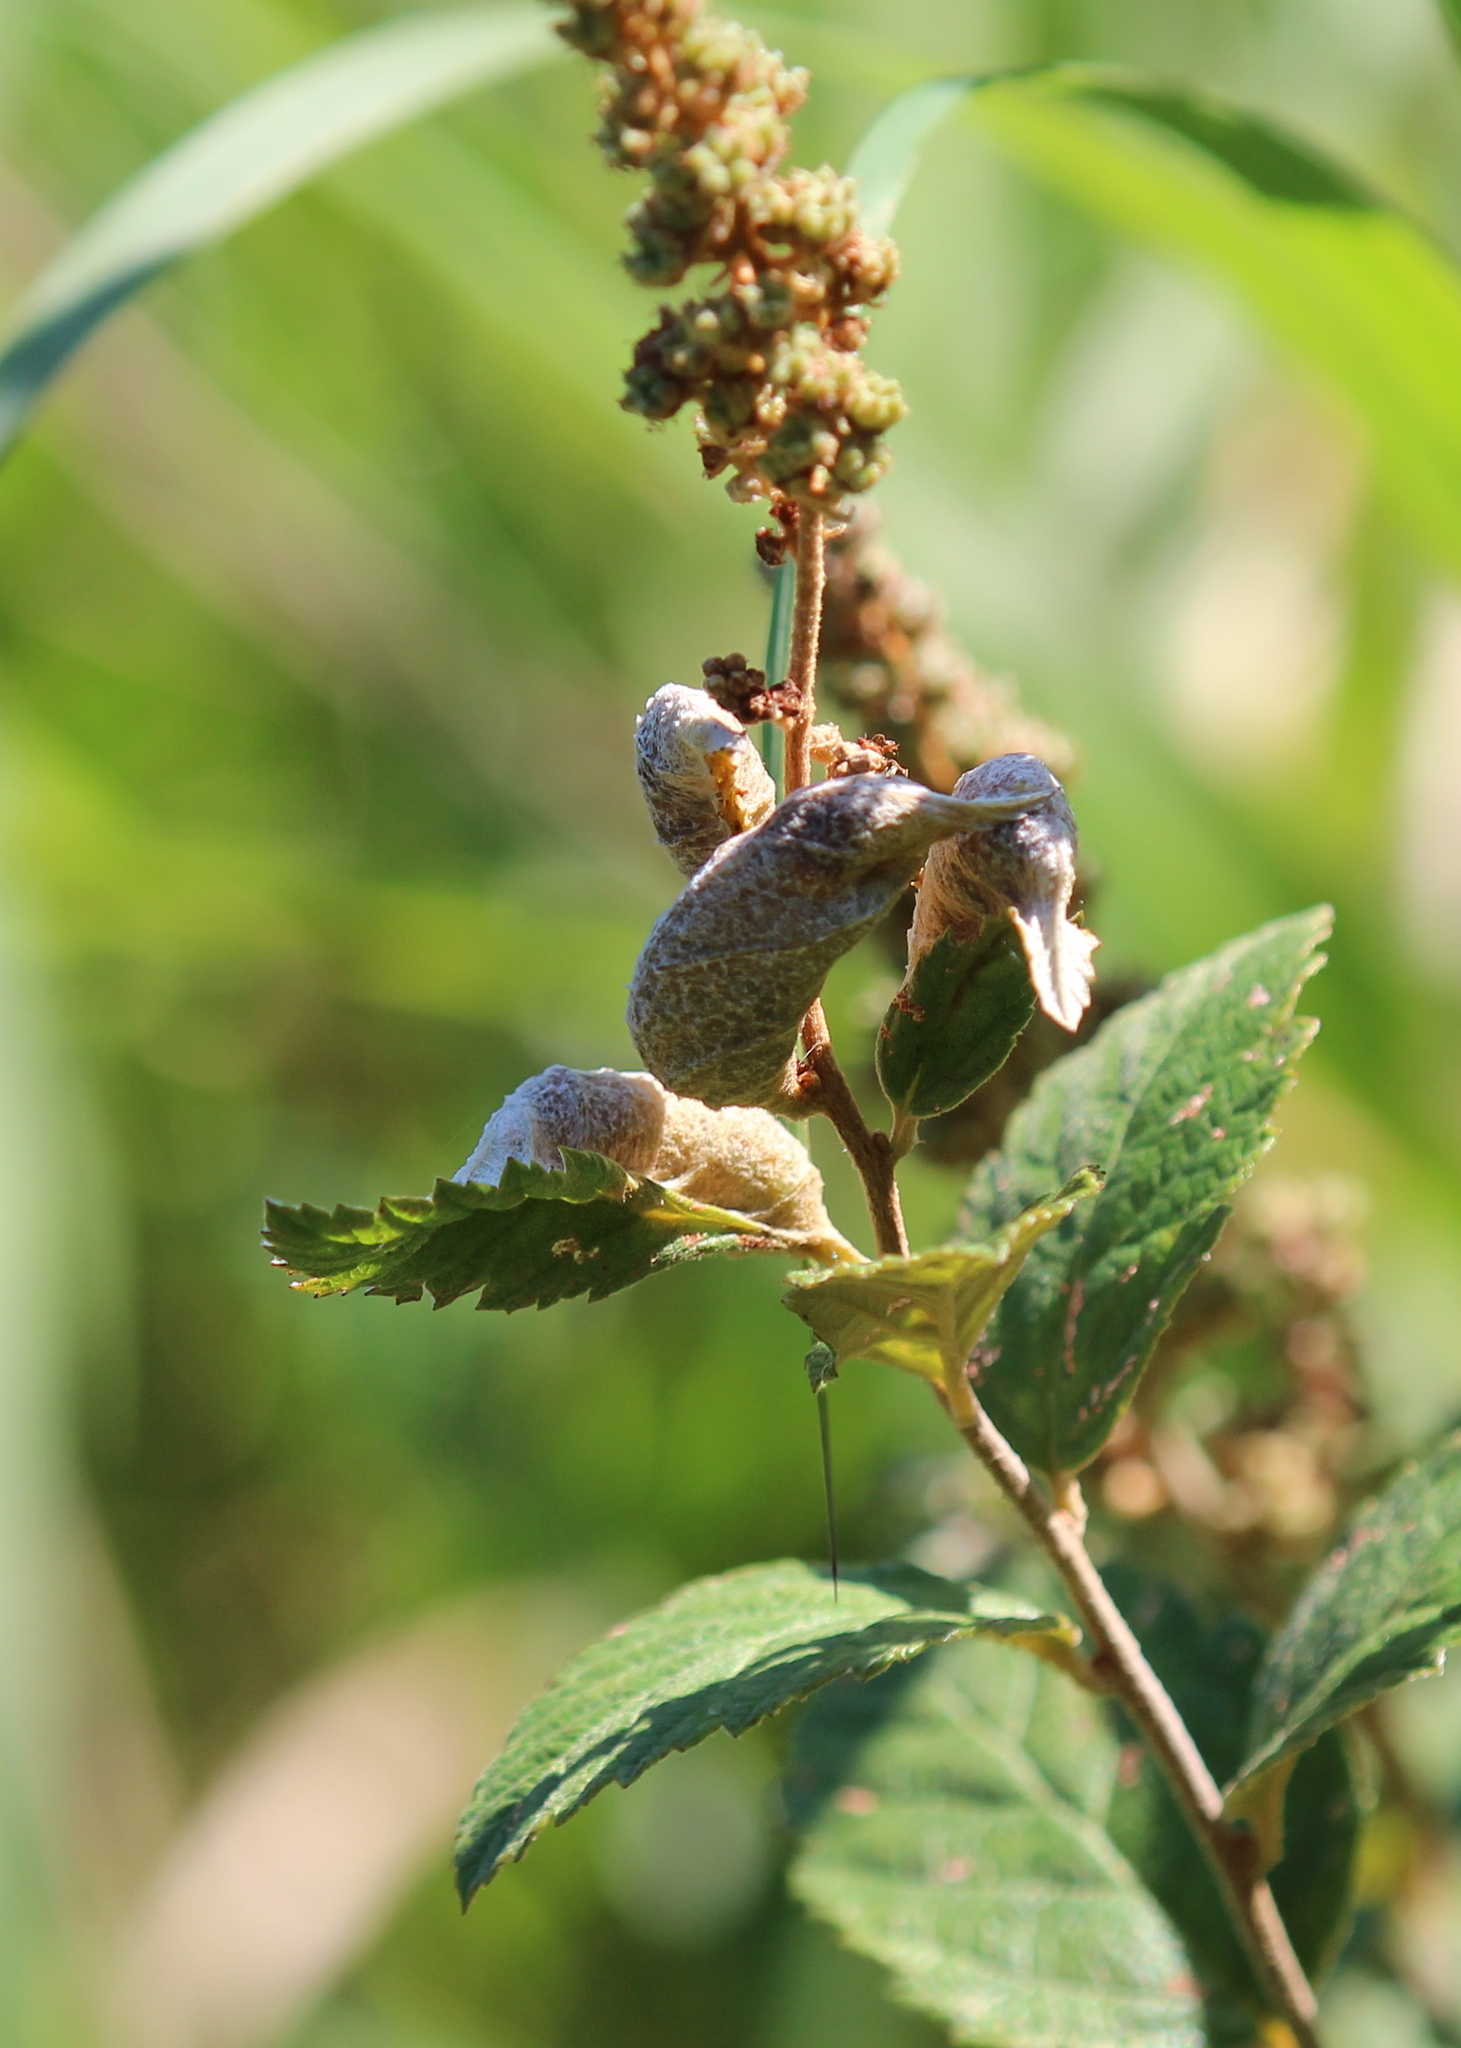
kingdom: Animalia
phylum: Arthropoda
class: Insecta
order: Diptera
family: Cecidomyiidae
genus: Dasineura
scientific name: Dasineura salicifoliae
